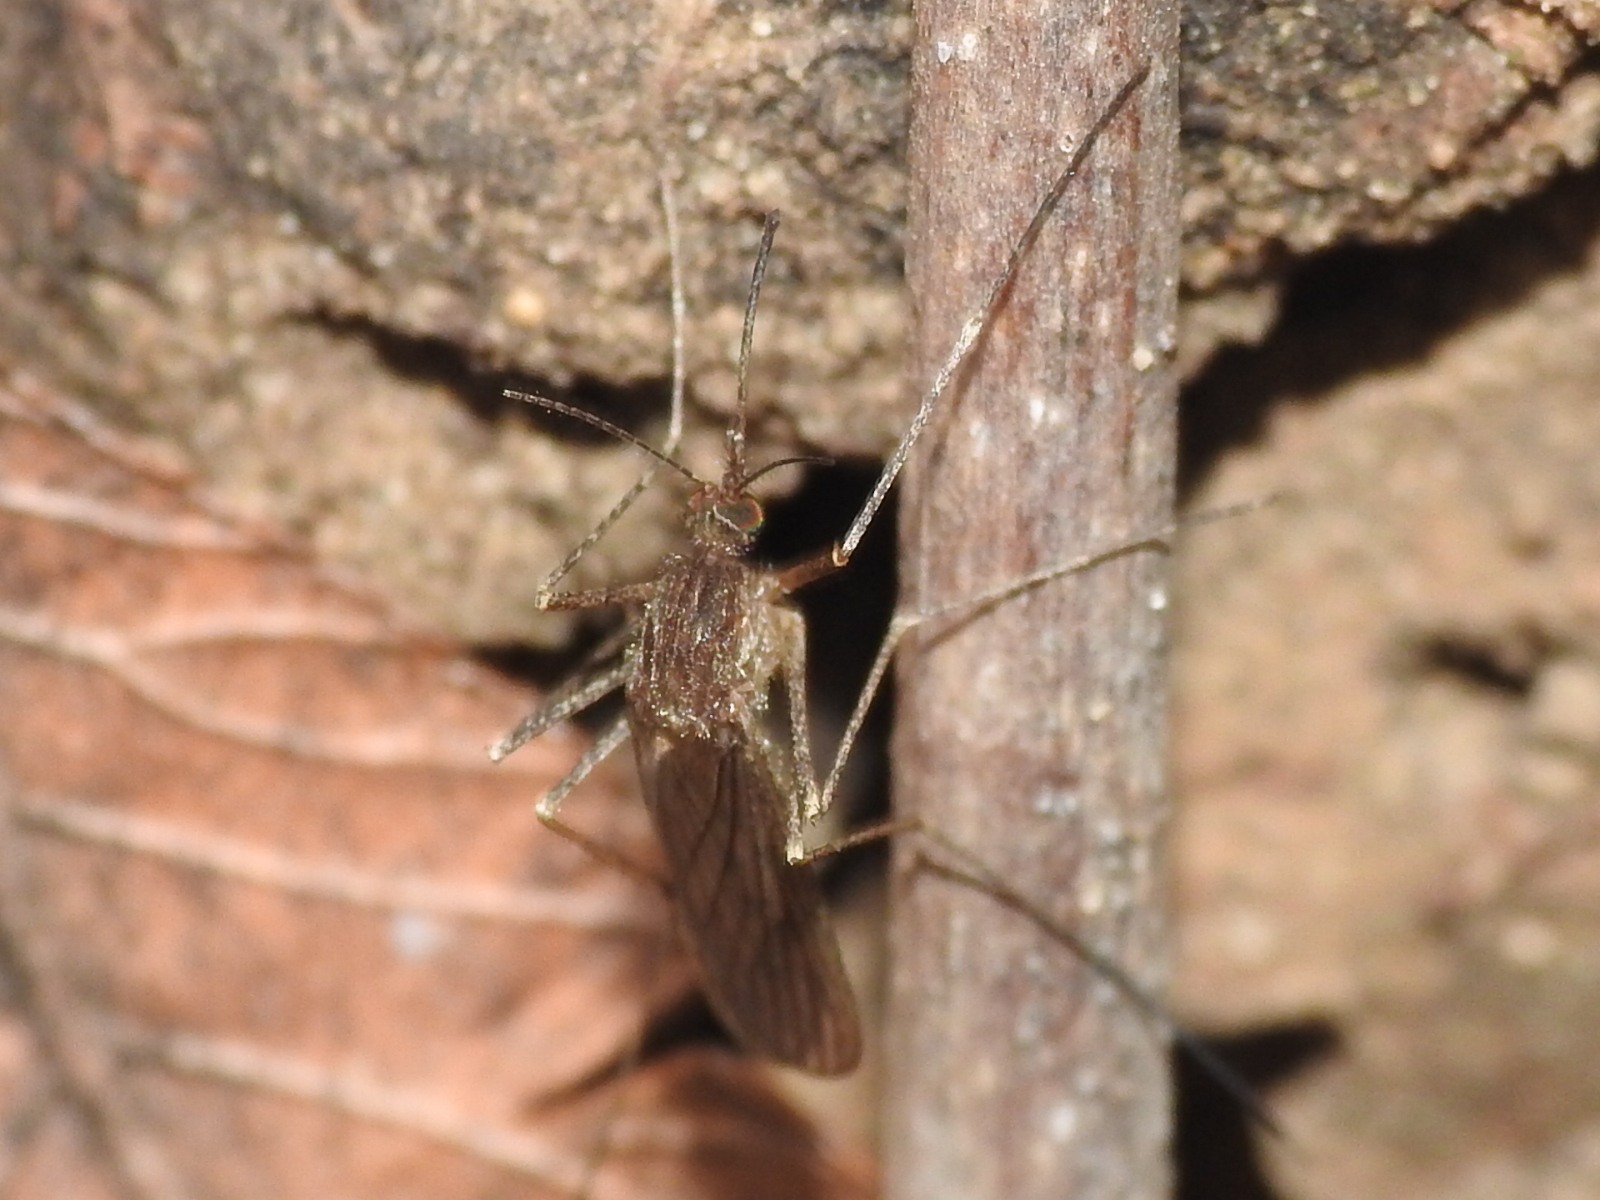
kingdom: Animalia
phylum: Arthropoda
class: Insecta
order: Diptera
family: Culicidae
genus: Culiseta
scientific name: Culiseta inornata
